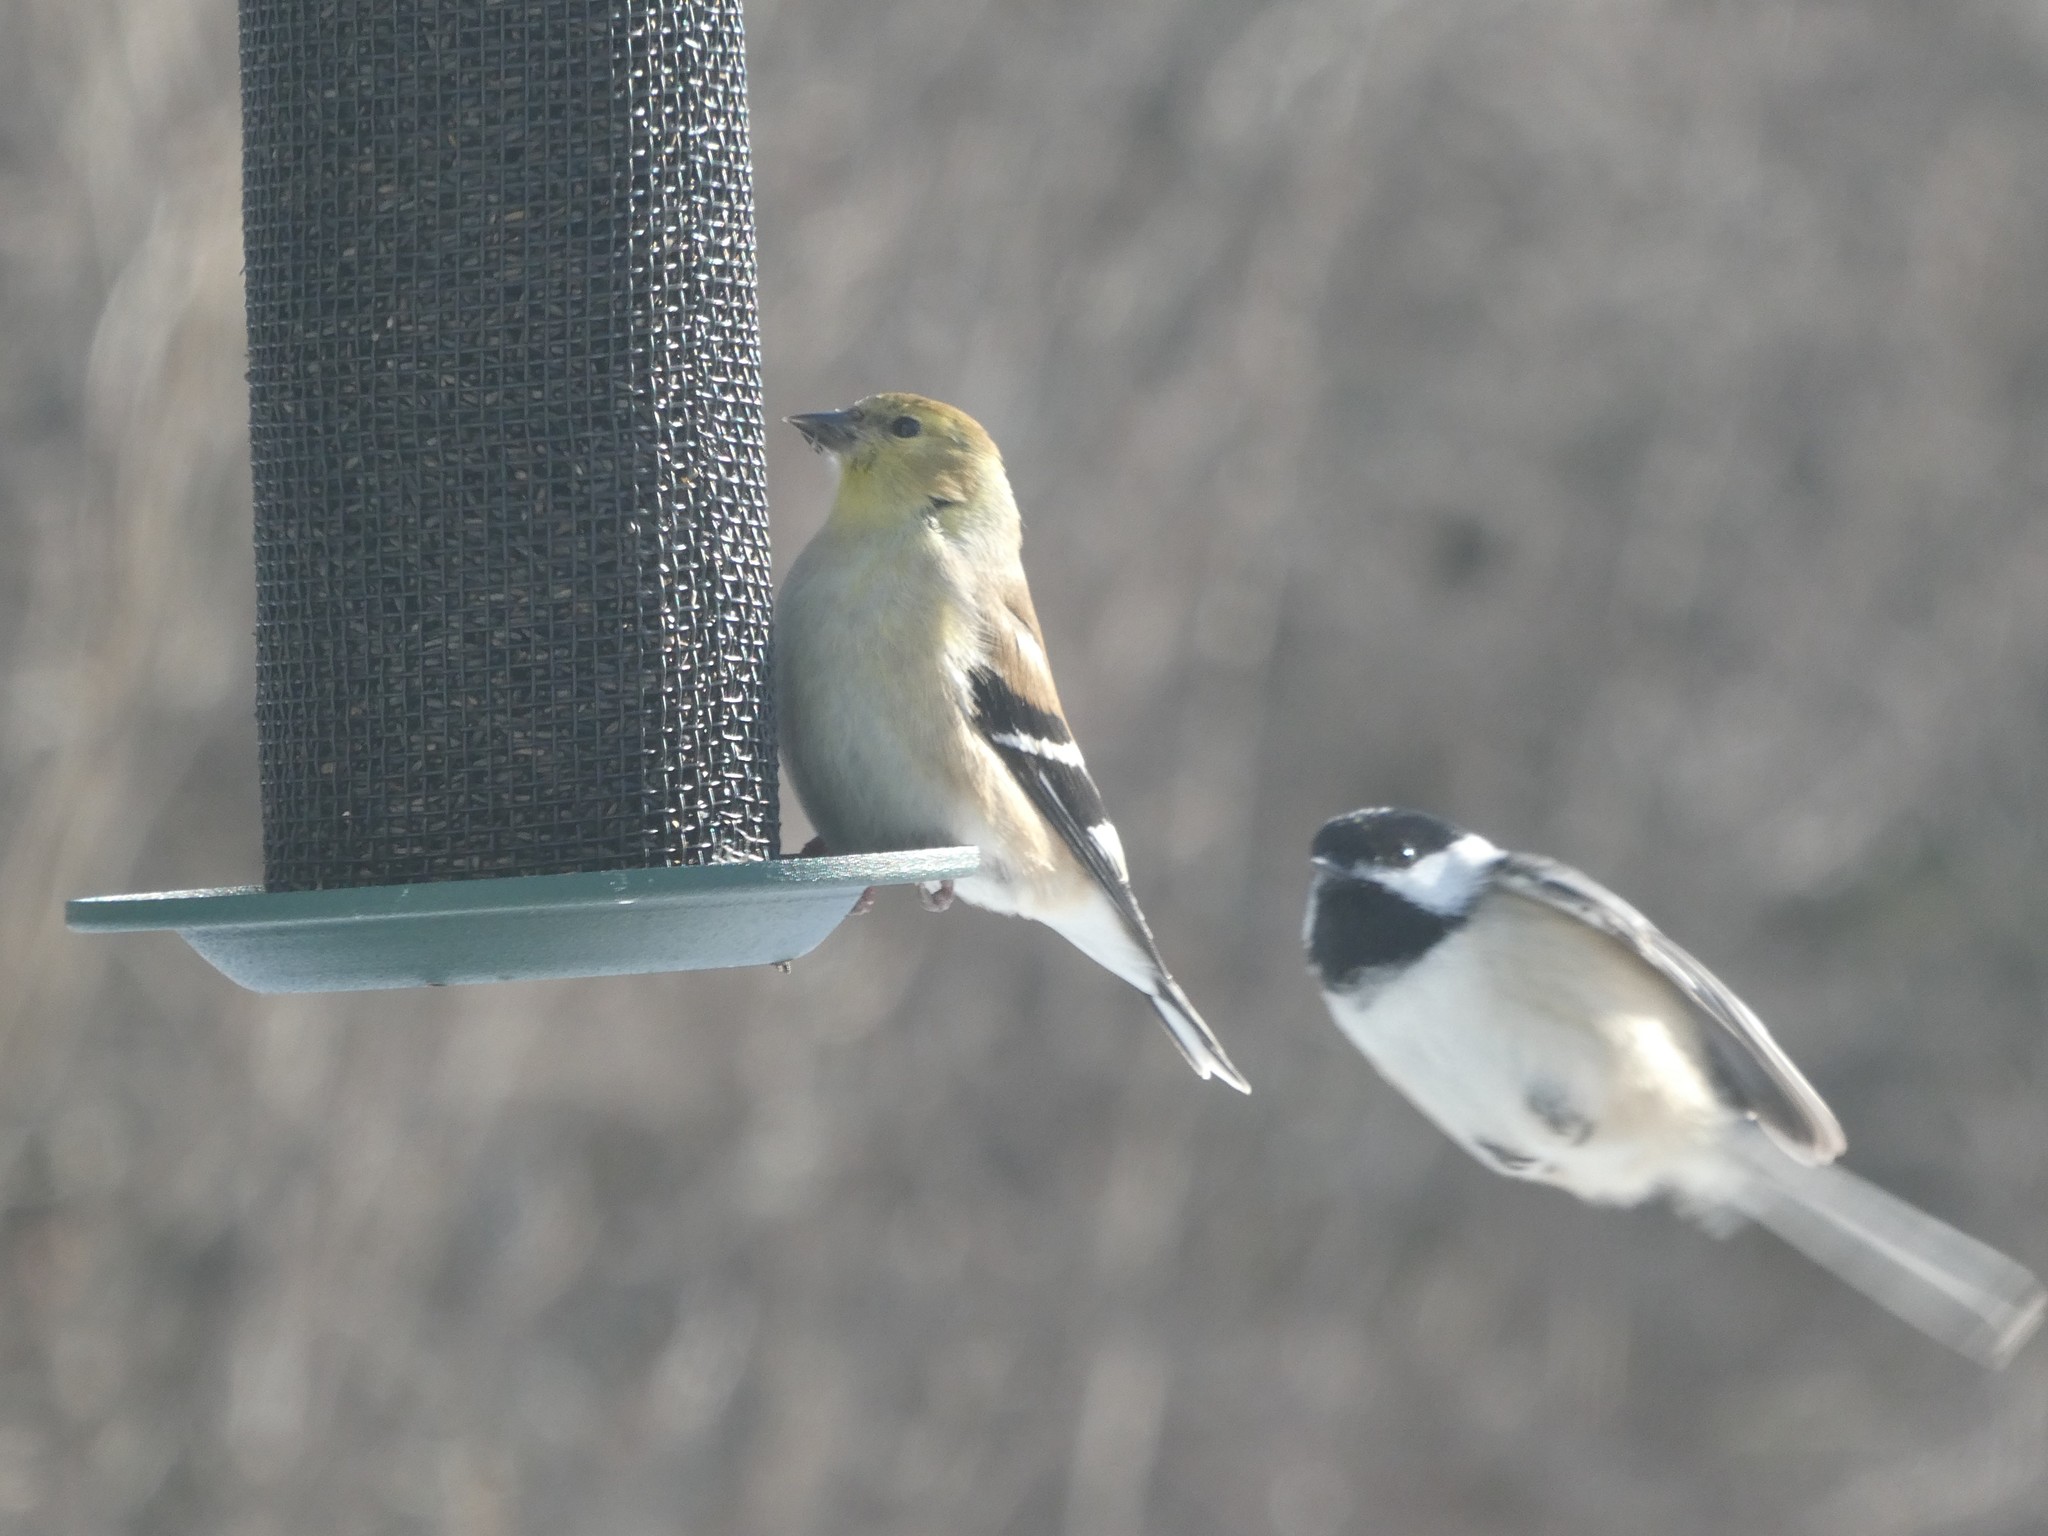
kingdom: Animalia
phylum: Chordata
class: Aves
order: Passeriformes
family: Fringillidae
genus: Spinus
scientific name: Spinus tristis
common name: American goldfinch
